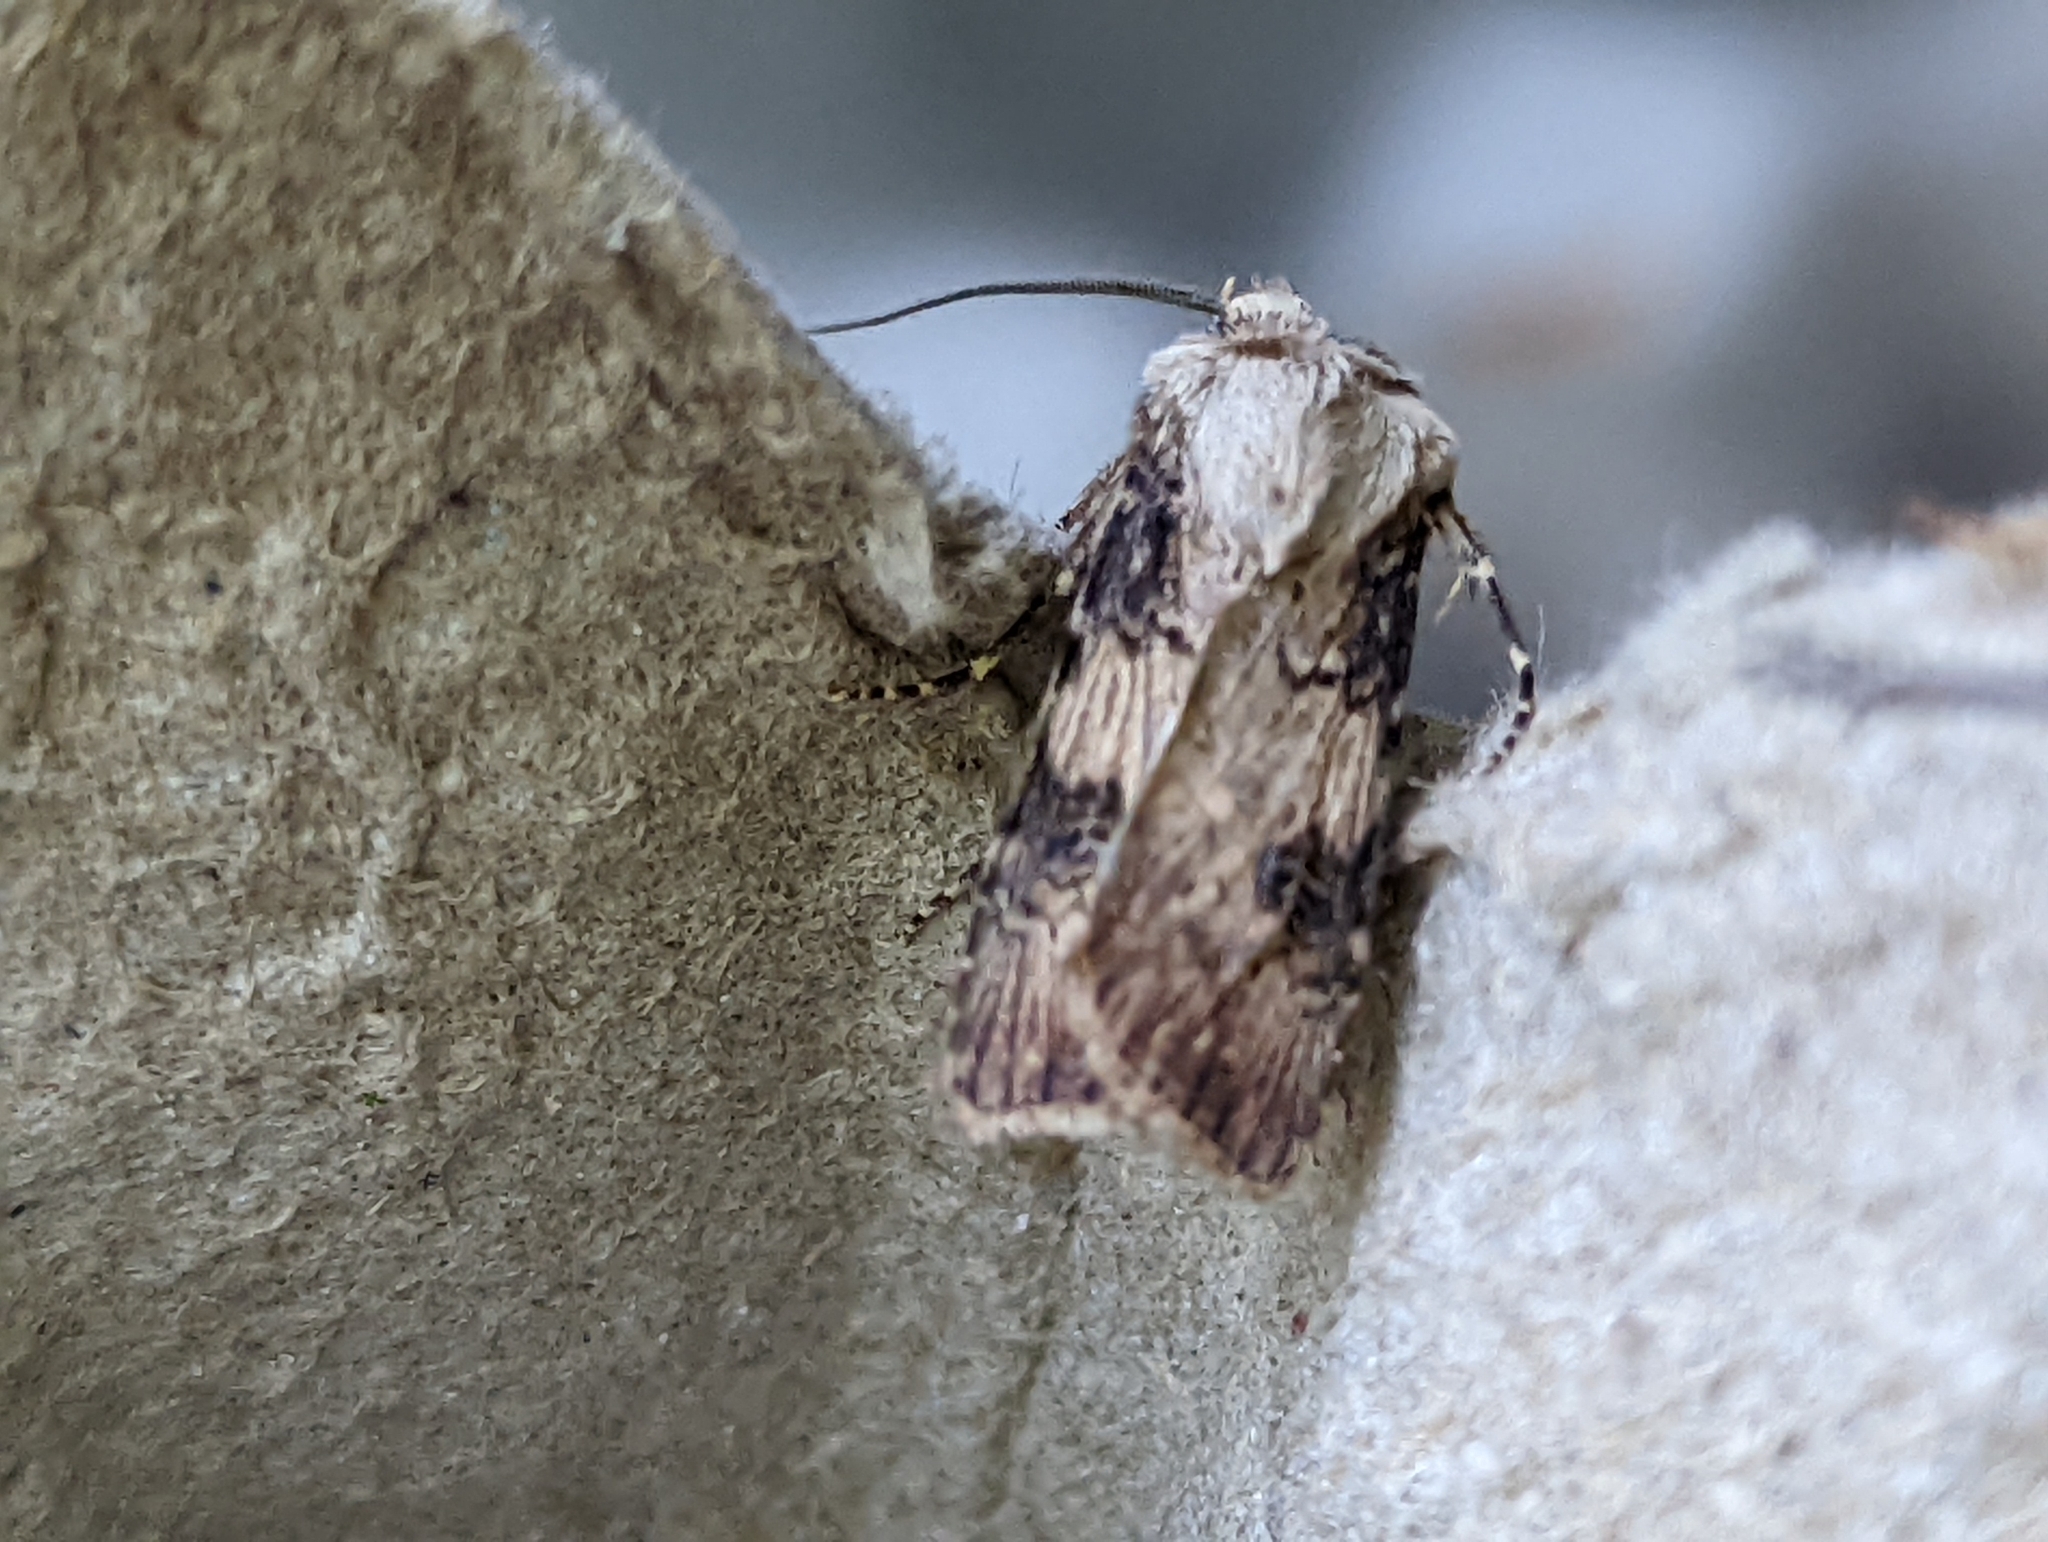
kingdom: Animalia
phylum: Arthropoda
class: Insecta
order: Lepidoptera
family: Noctuidae
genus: Agrotis
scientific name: Agrotis puta
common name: Shuttle-shaped dart
